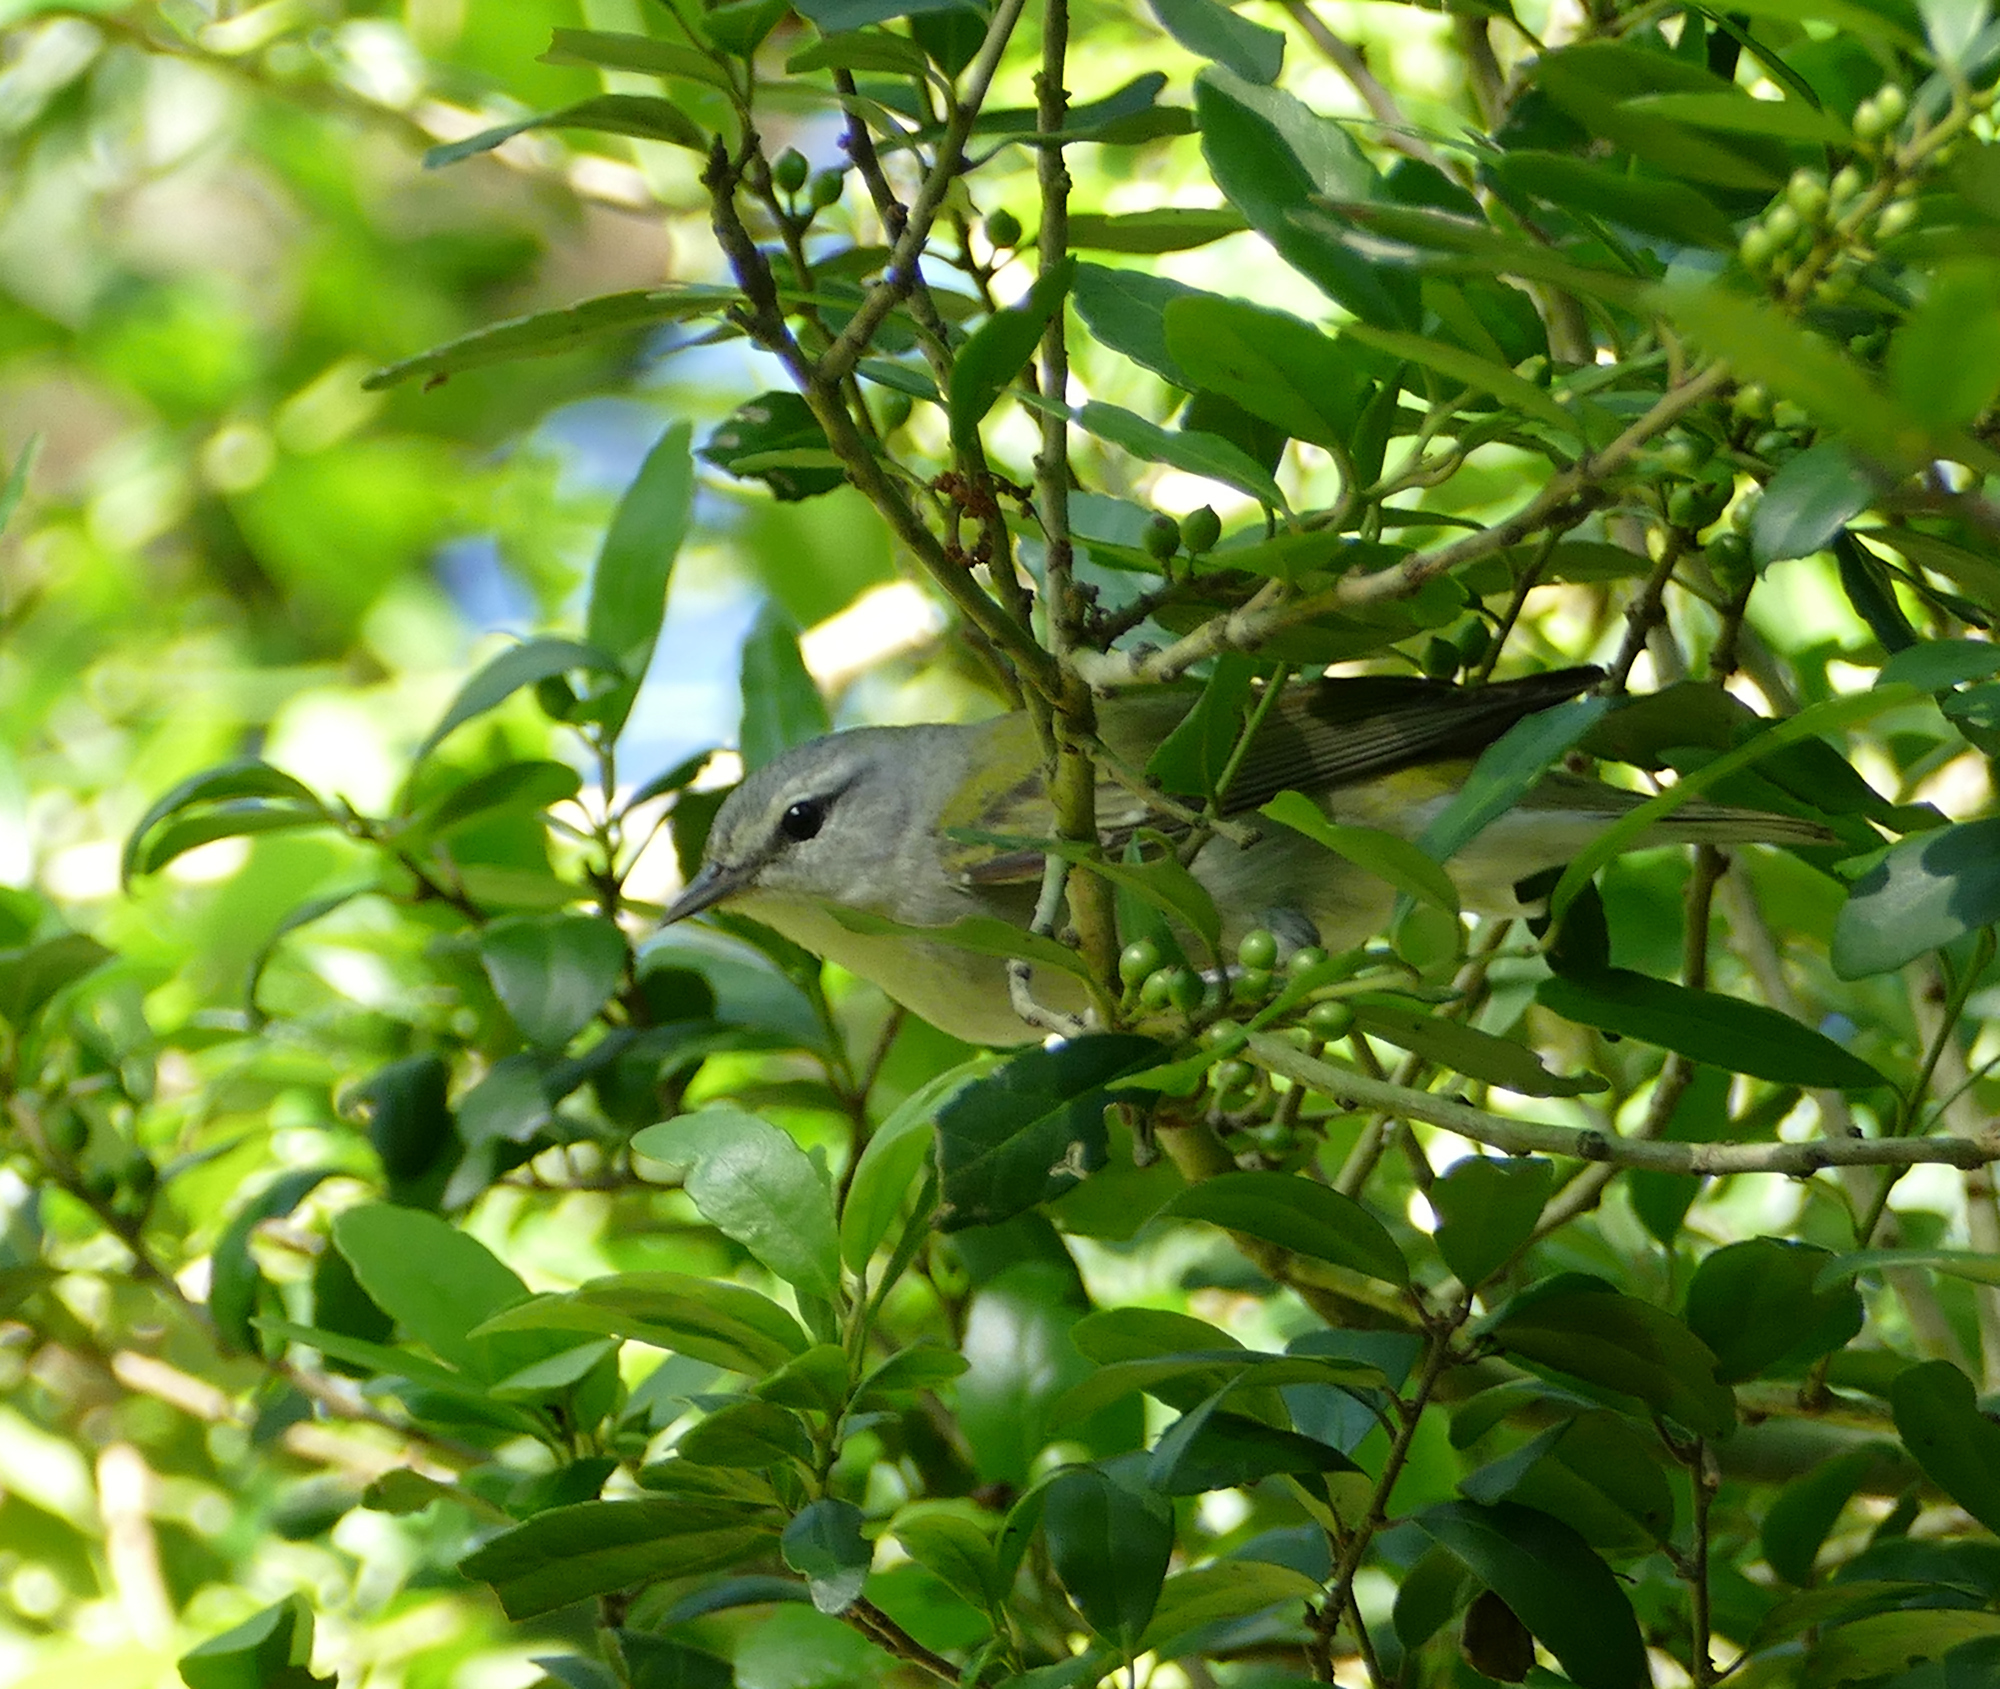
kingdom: Animalia
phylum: Chordata
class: Aves
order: Passeriformes
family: Parulidae
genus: Leiothlypis
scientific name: Leiothlypis peregrina
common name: Tennessee warbler
